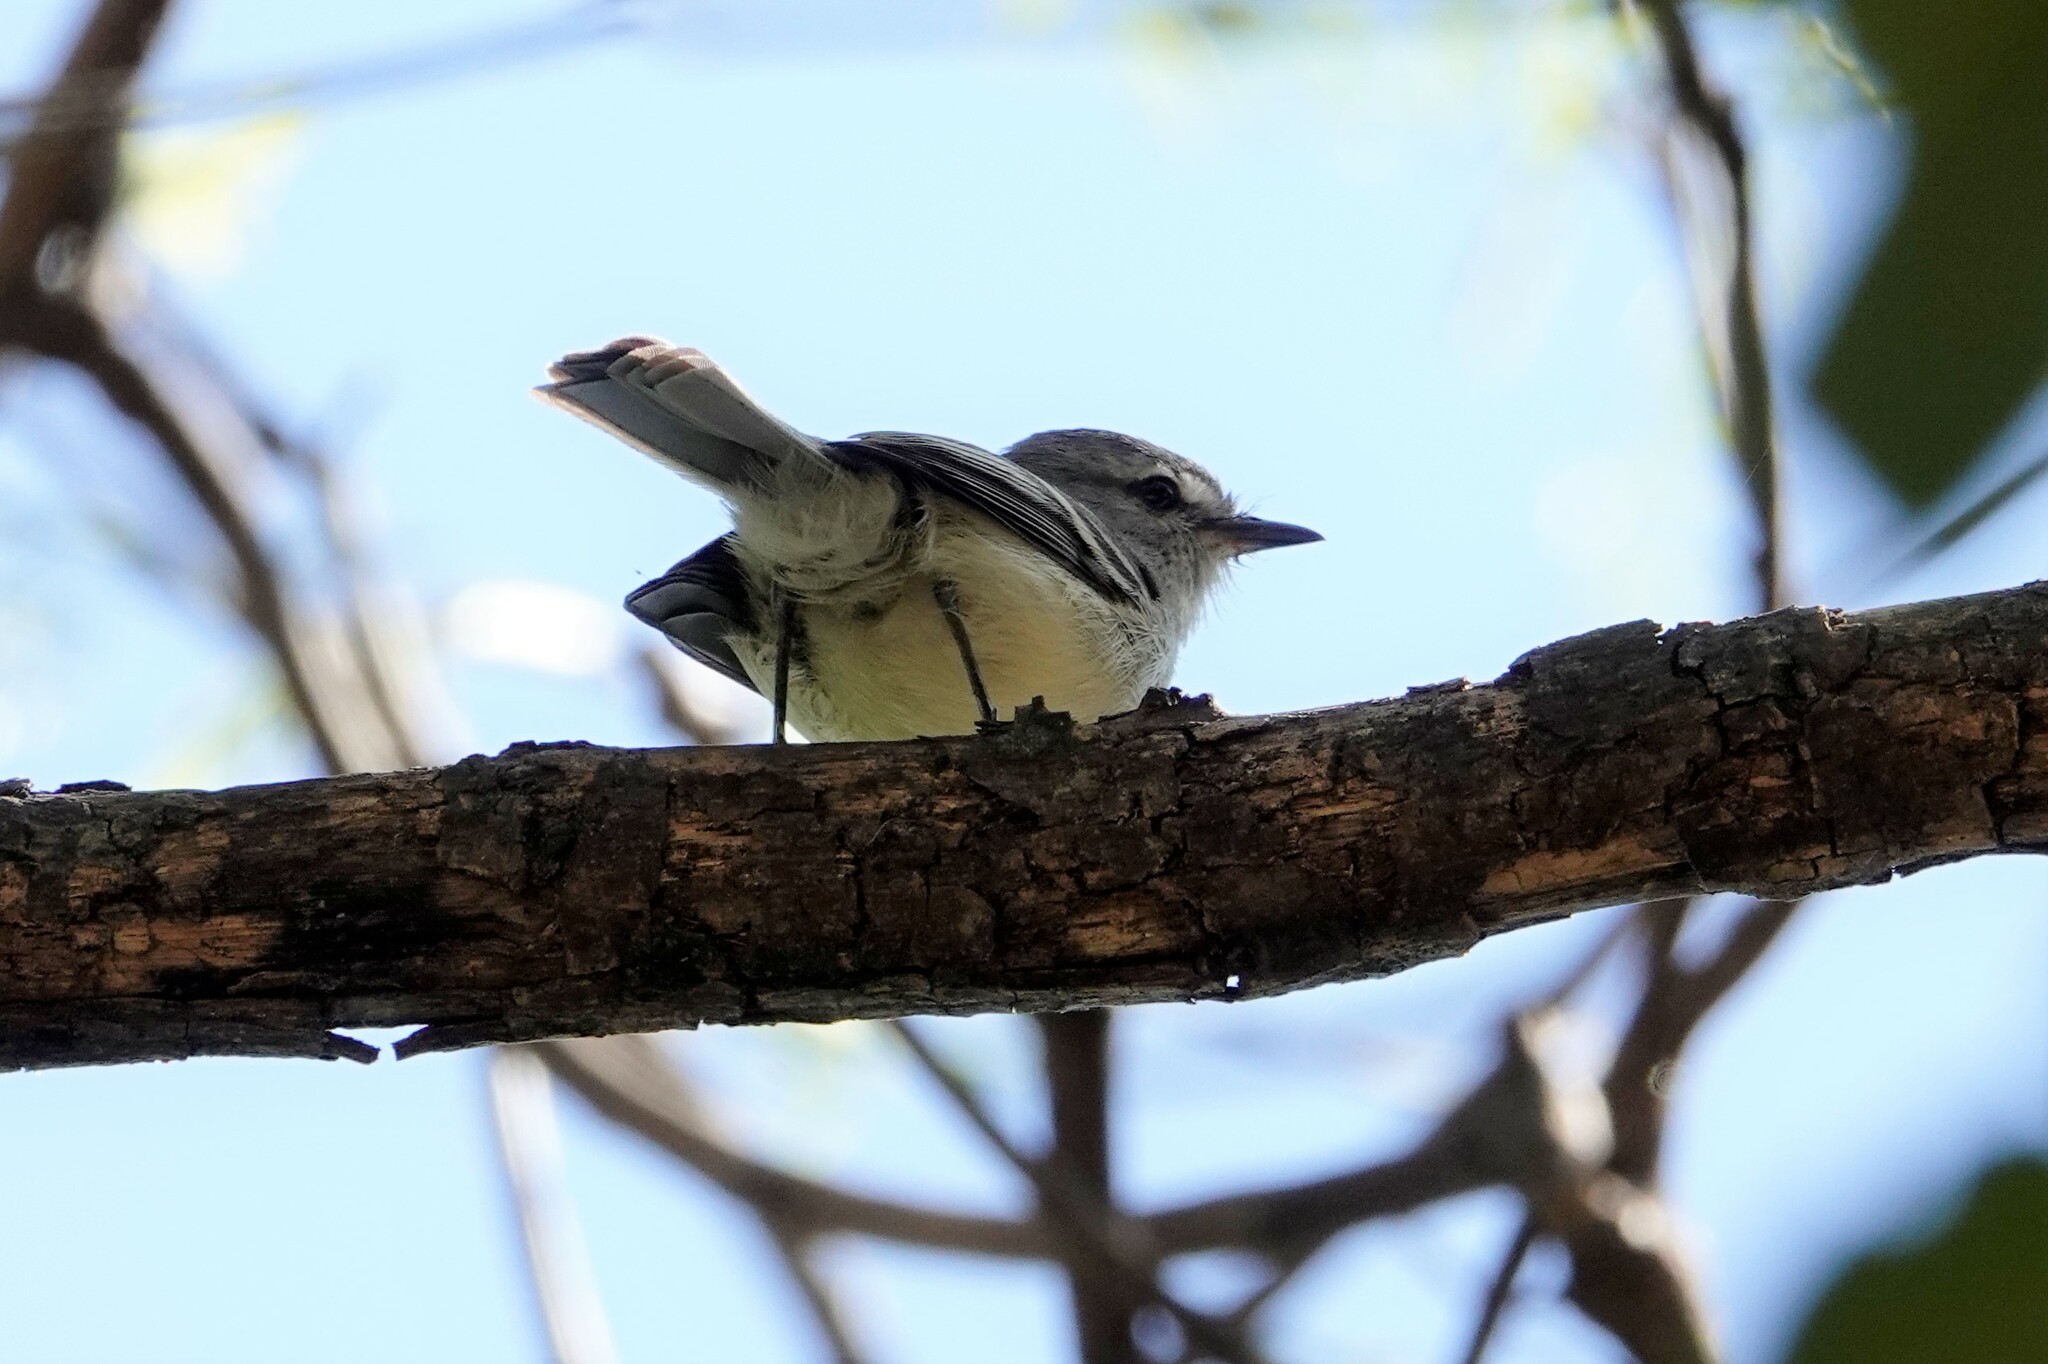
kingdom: Animalia
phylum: Chordata
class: Aves
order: Passeriformes
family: Tyrannidae
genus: Serpophaga
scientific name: Serpophaga subcristata
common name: White-crested tyrannulet
